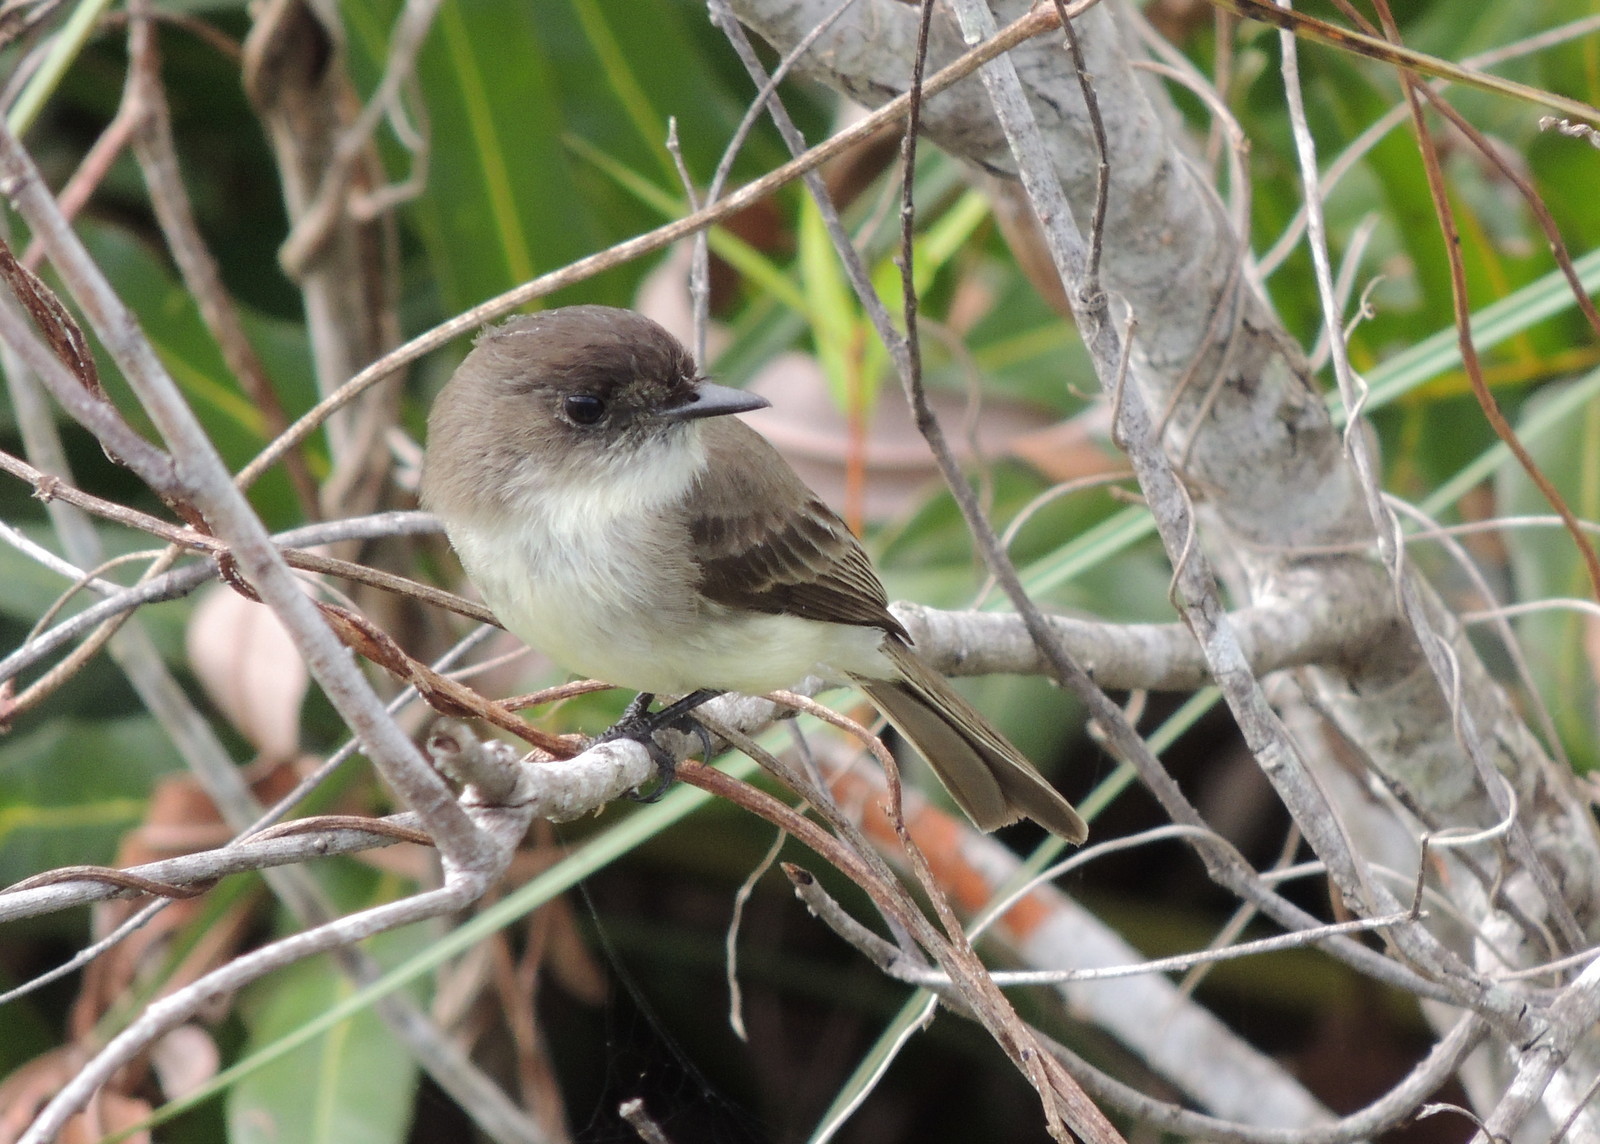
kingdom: Animalia
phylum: Chordata
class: Aves
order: Passeriformes
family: Tyrannidae
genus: Sayornis
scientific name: Sayornis phoebe
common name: Eastern phoebe
